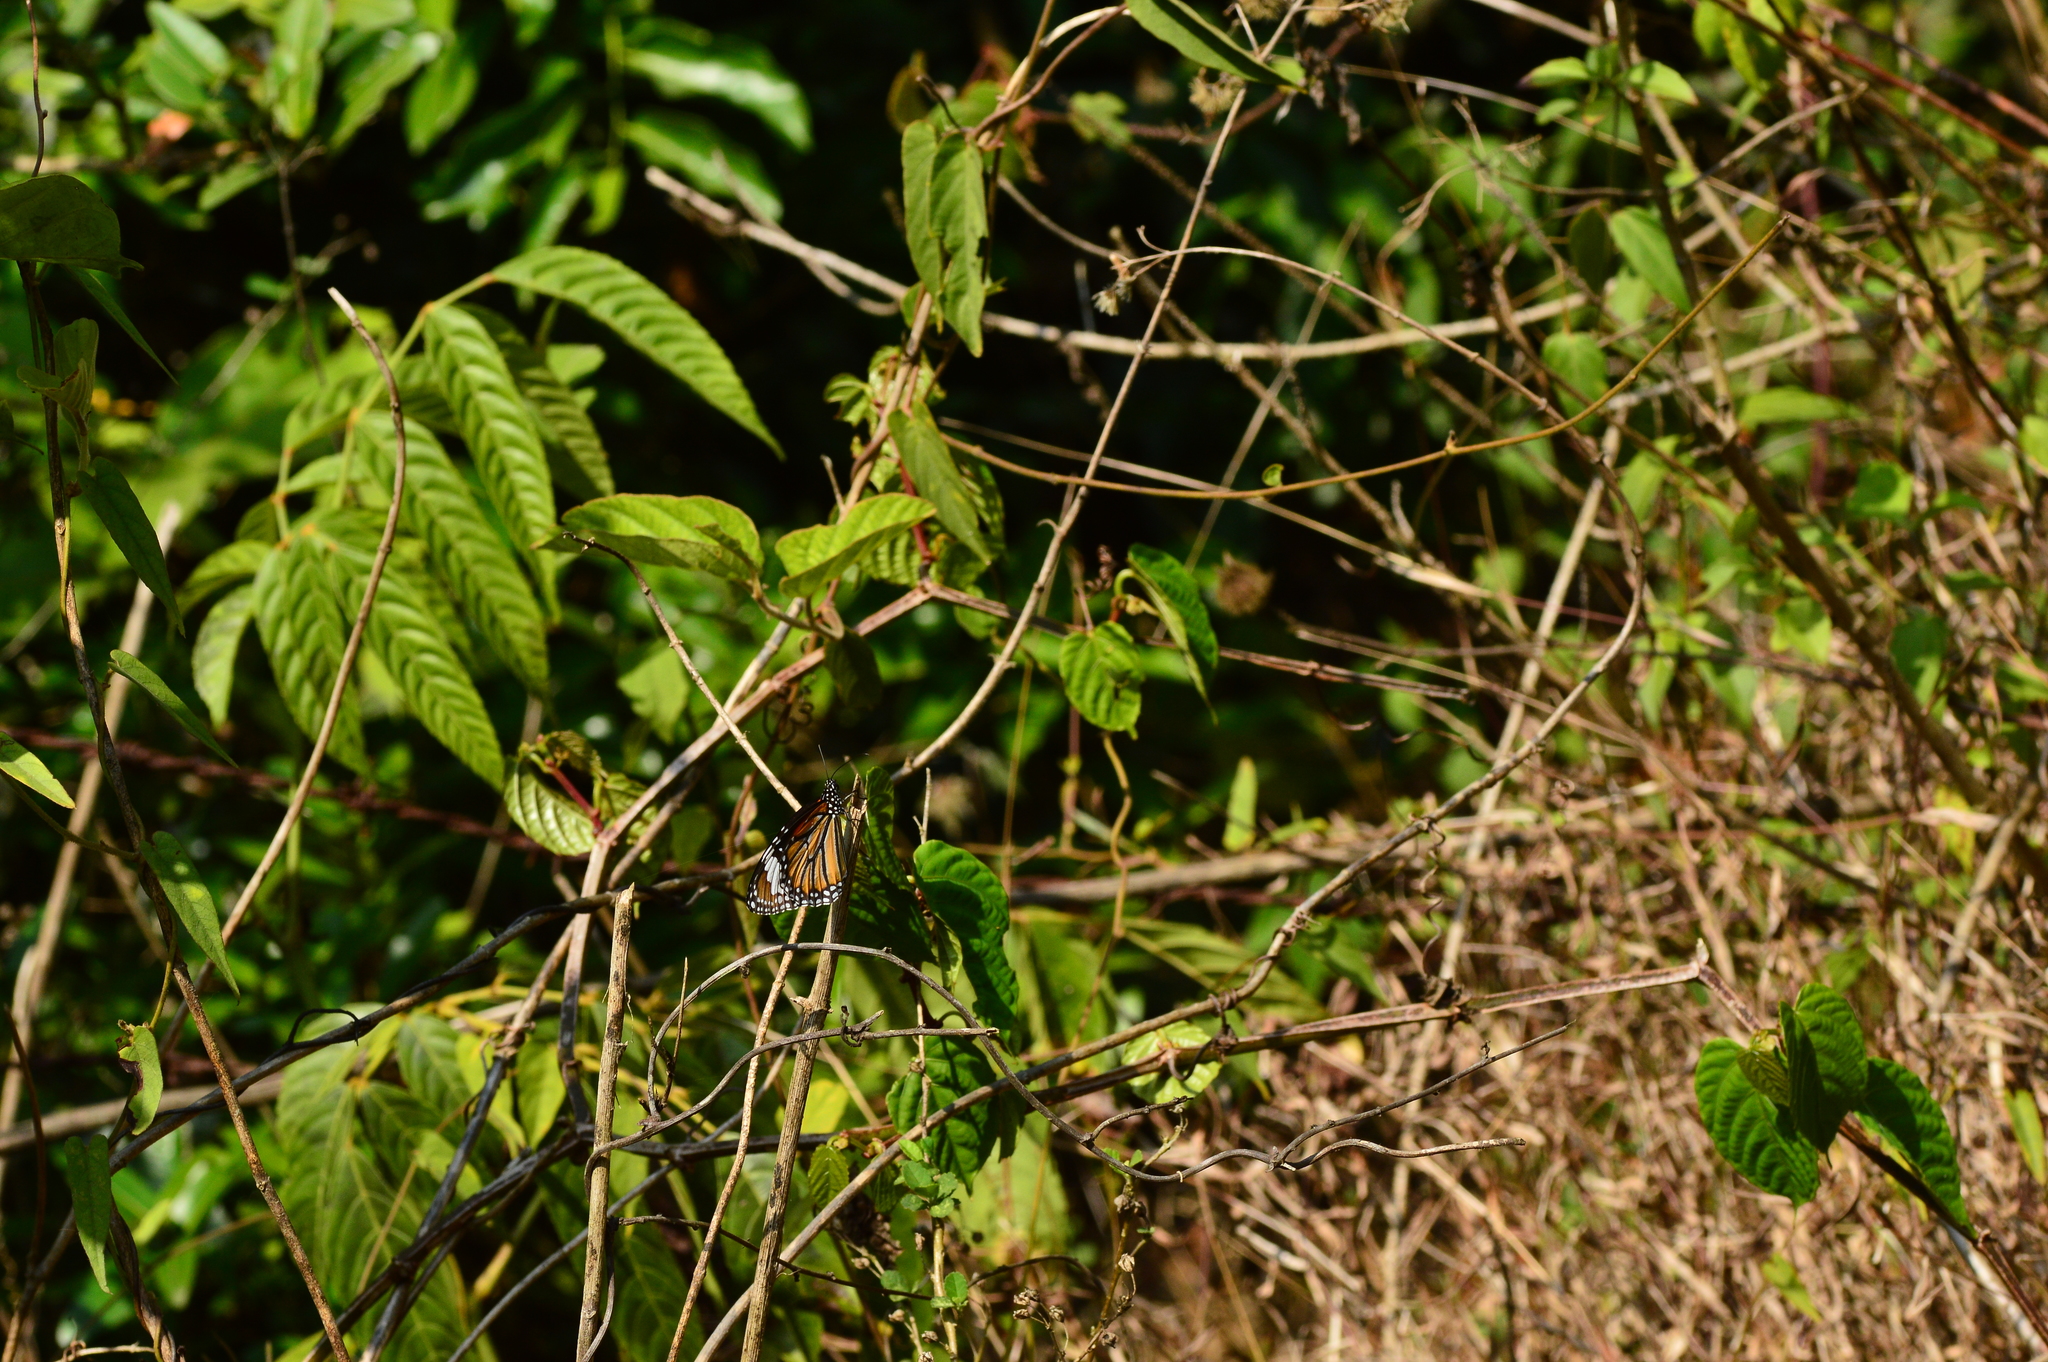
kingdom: Animalia
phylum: Arthropoda
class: Insecta
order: Lepidoptera
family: Nymphalidae
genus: Danaus
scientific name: Danaus genutia
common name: Common tiger butterfly
